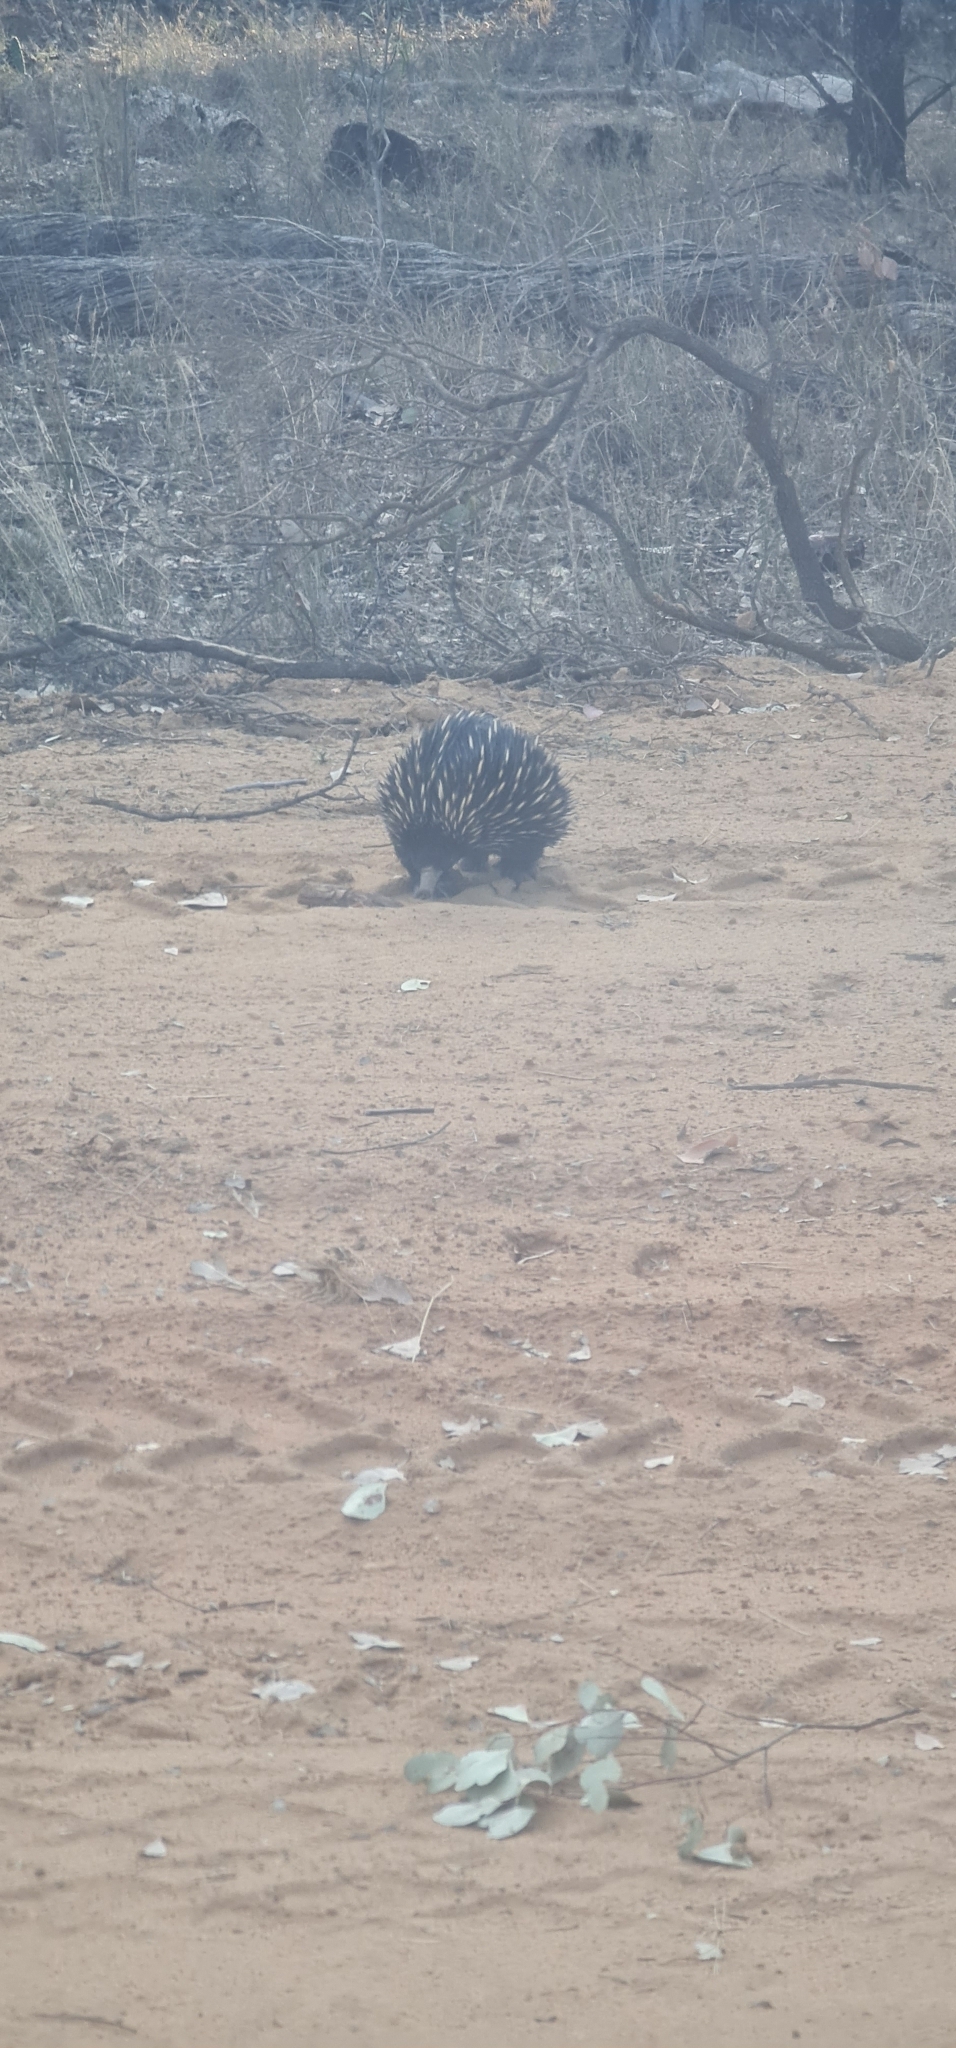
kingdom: Animalia
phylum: Chordata
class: Mammalia
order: Monotremata
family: Tachyglossidae
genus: Tachyglossus
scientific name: Tachyglossus aculeatus
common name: Short-beaked echidna
